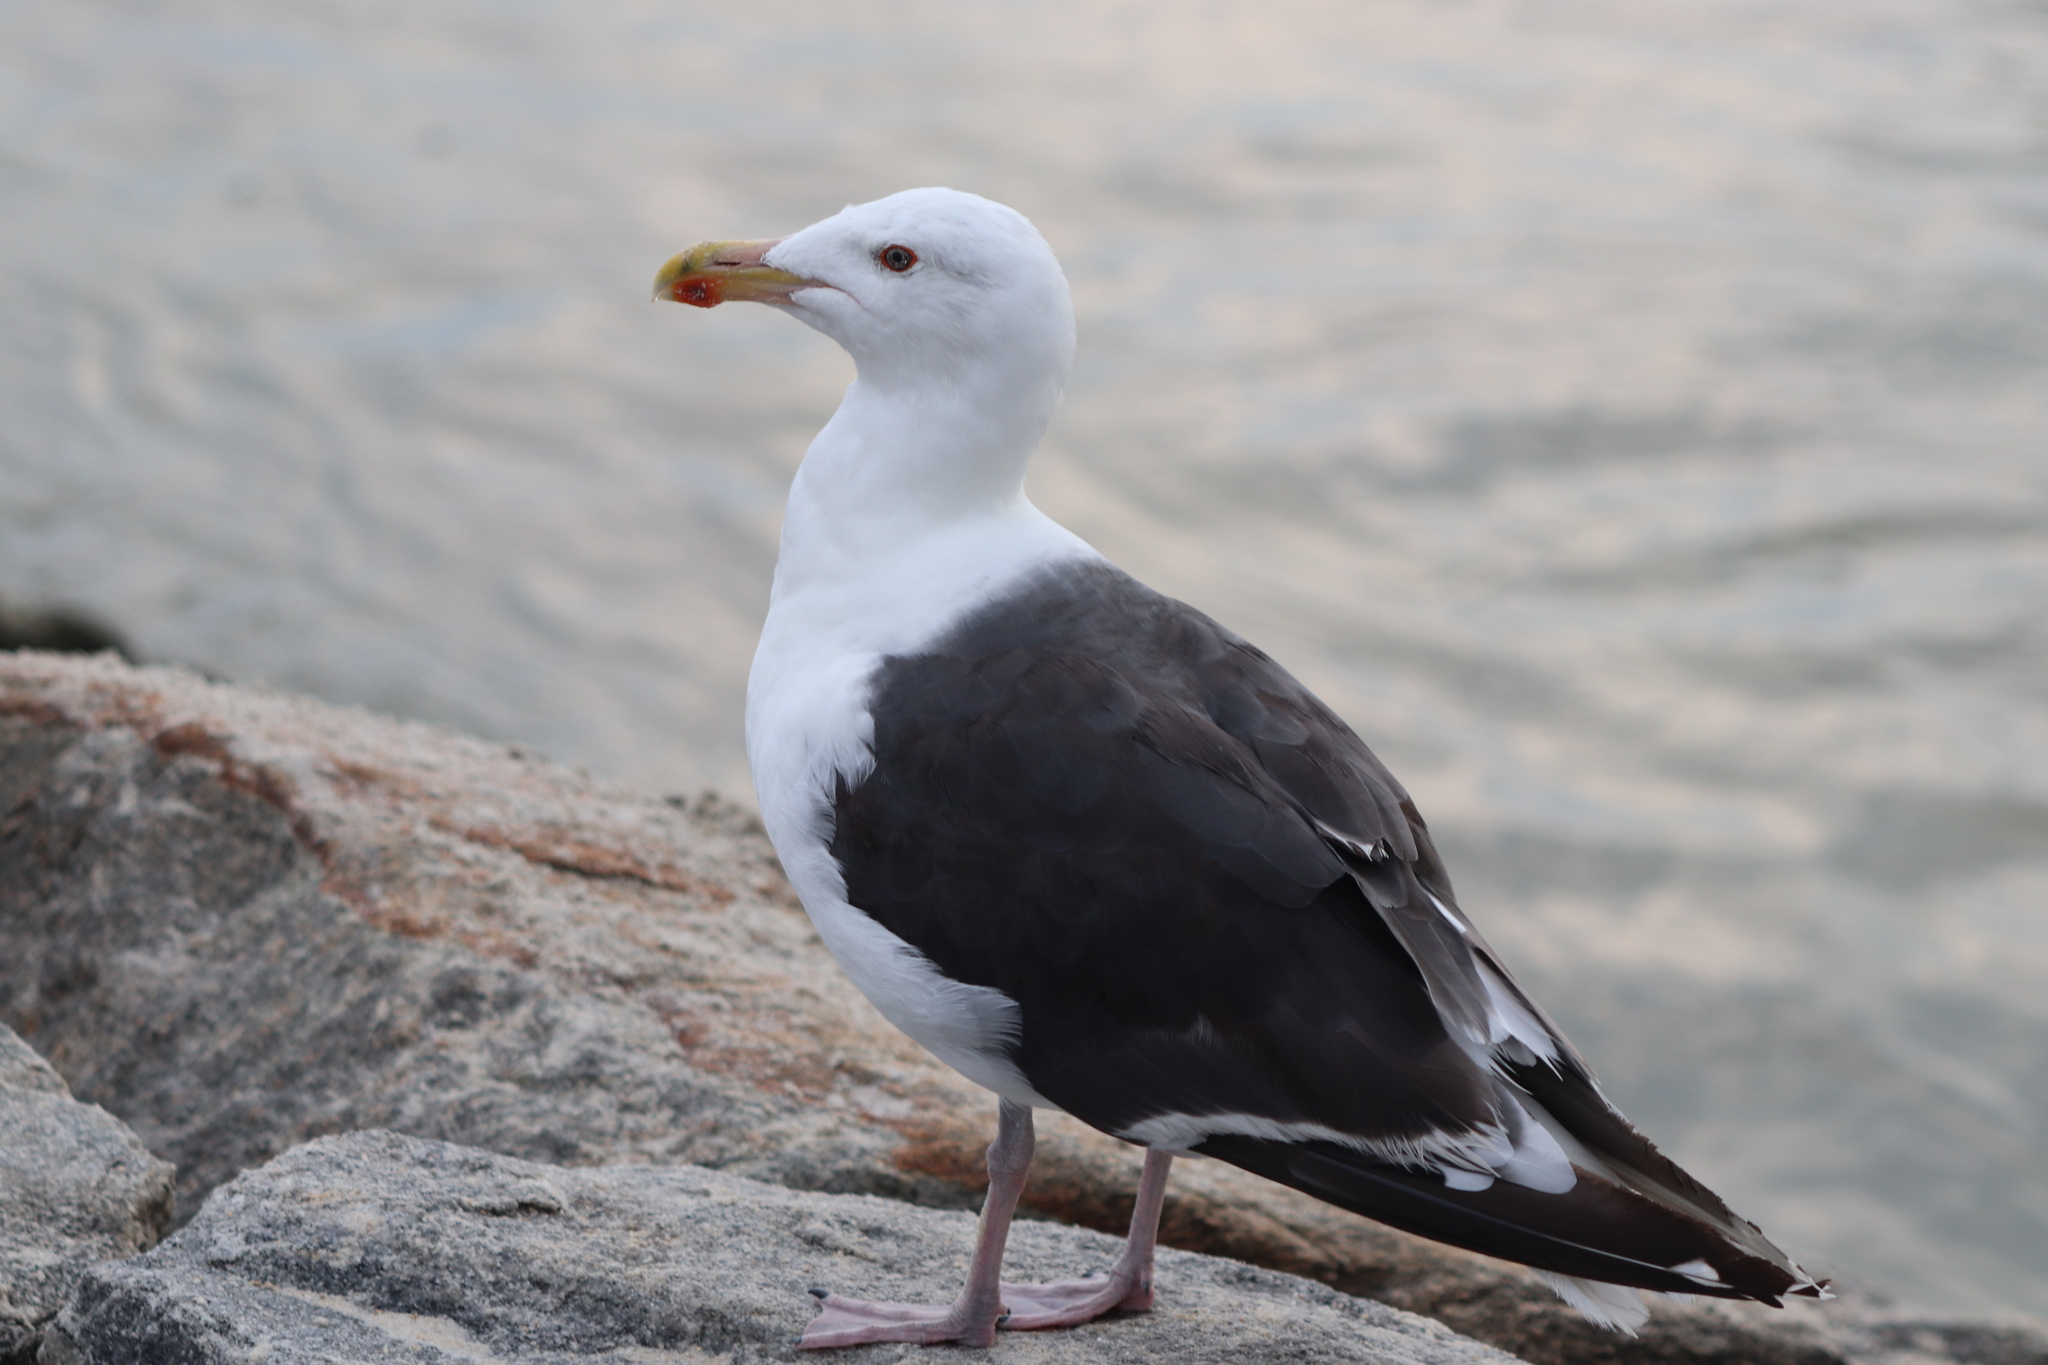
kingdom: Animalia
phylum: Chordata
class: Aves
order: Charadriiformes
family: Laridae
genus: Larus
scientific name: Larus marinus
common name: Great black-backed gull
